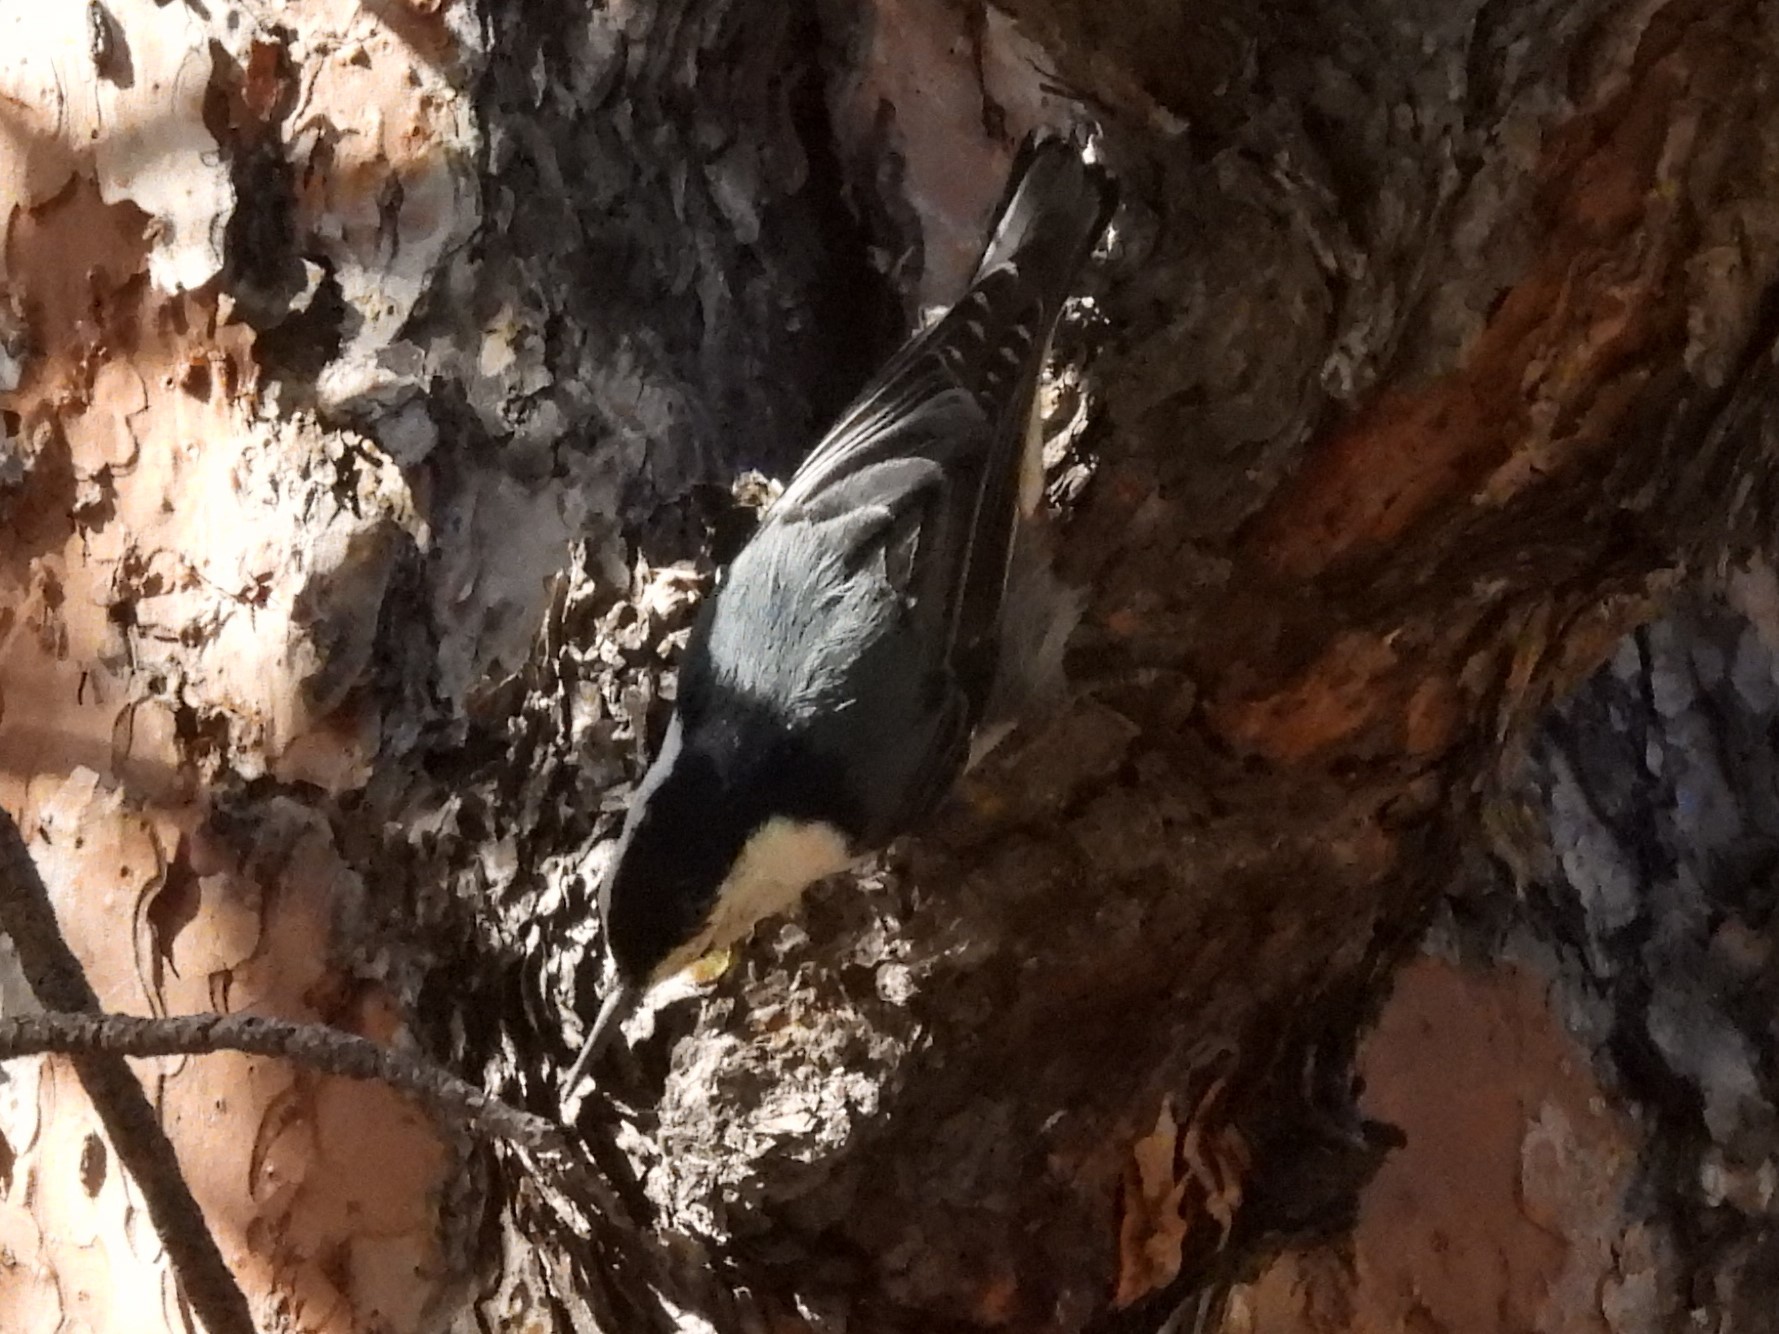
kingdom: Animalia
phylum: Chordata
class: Aves
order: Passeriformes
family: Sittidae
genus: Sitta
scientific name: Sitta carolinensis
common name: White-breasted nuthatch
